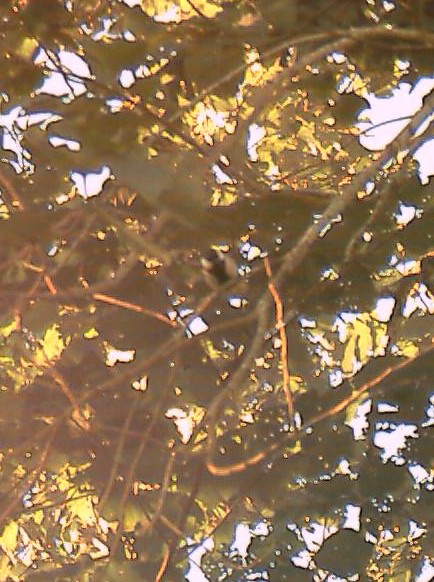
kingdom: Animalia
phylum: Chordata
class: Aves
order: Passeriformes
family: Paridae
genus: Parus
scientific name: Parus cinereus
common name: Cinereous tit
